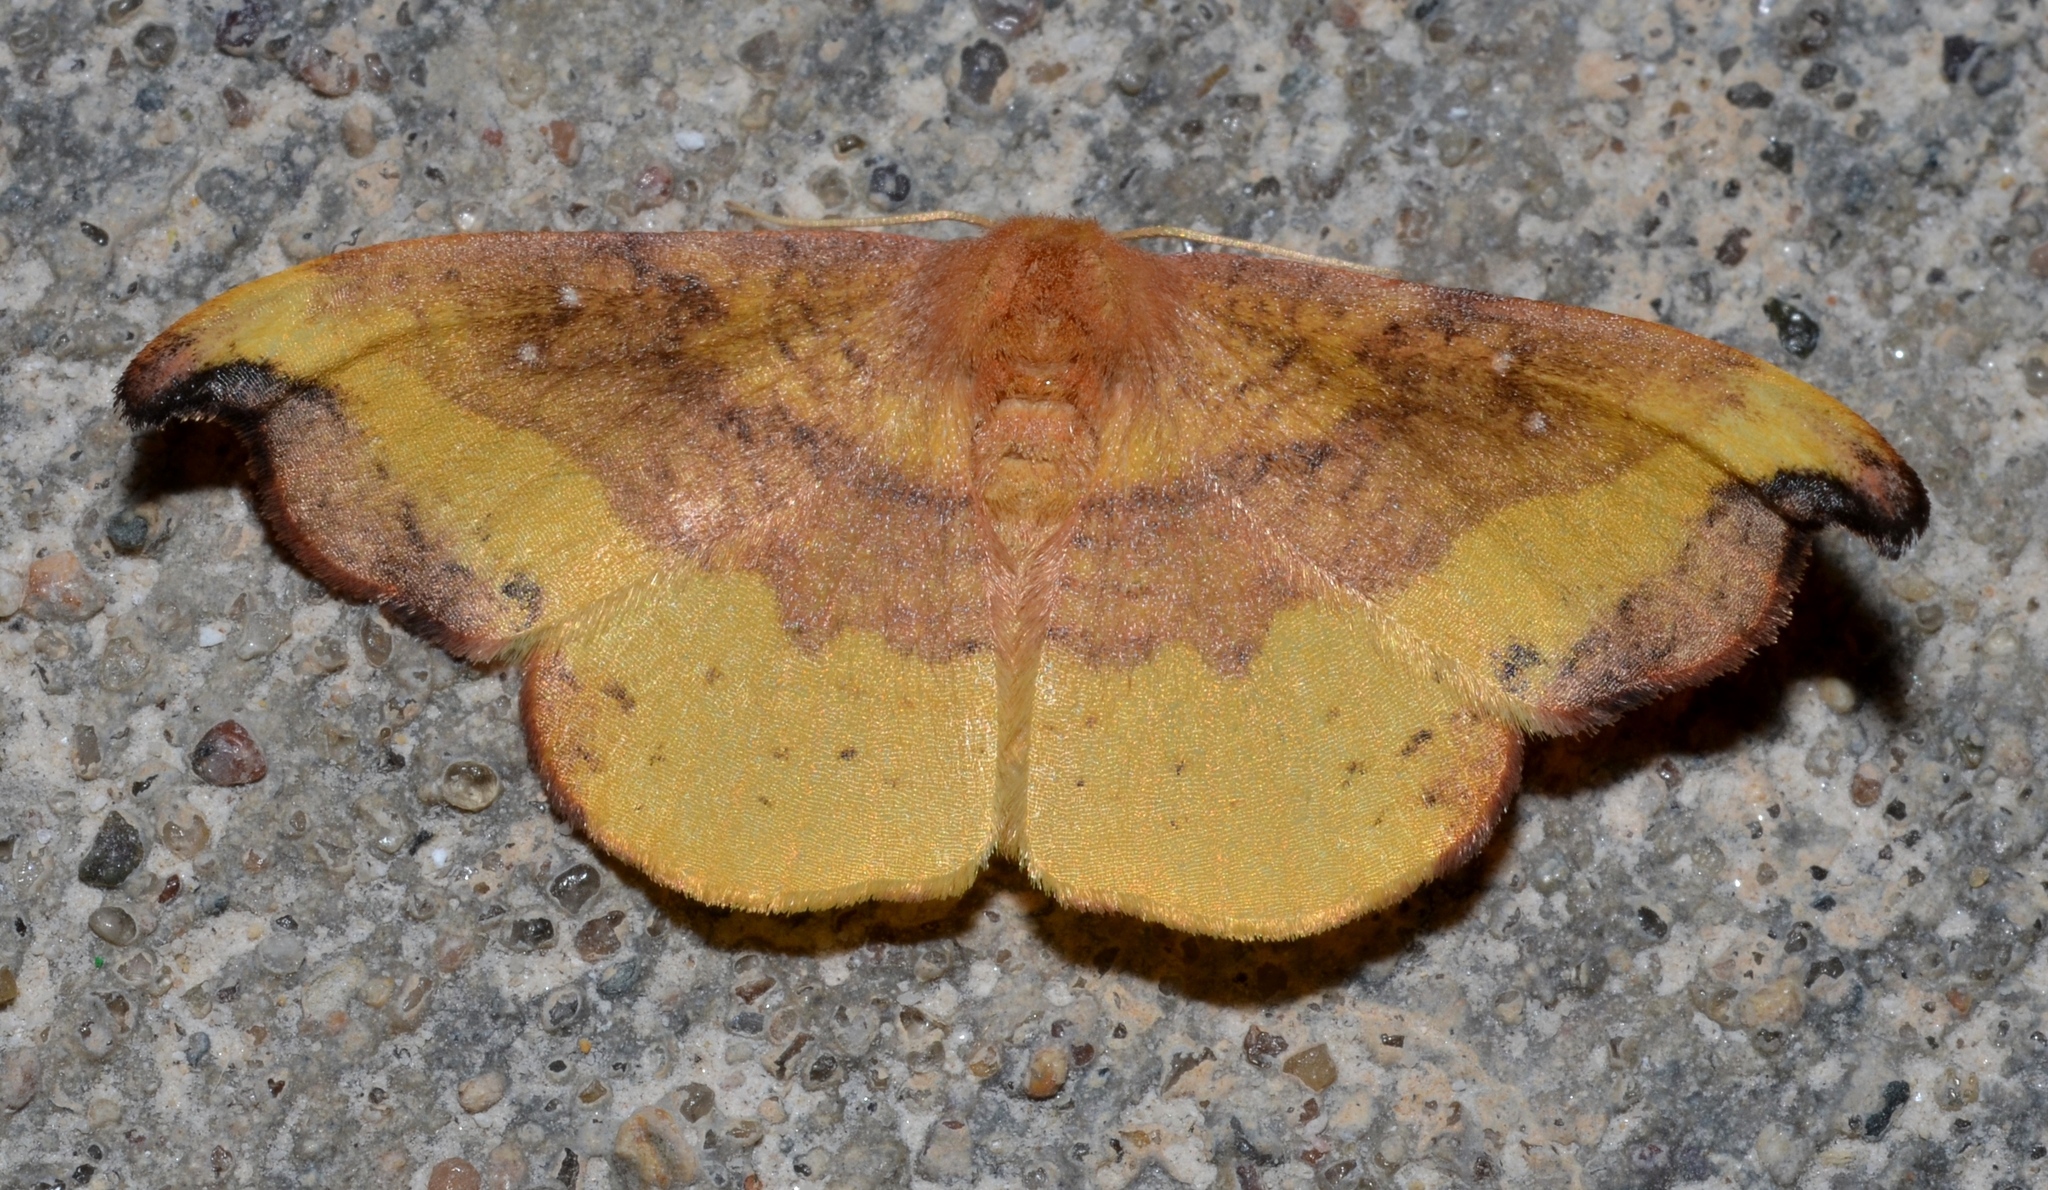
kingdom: Animalia
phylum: Arthropoda
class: Insecta
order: Lepidoptera
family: Drepanidae
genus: Oreta
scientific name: Oreta rosea
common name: Rose hooktip
